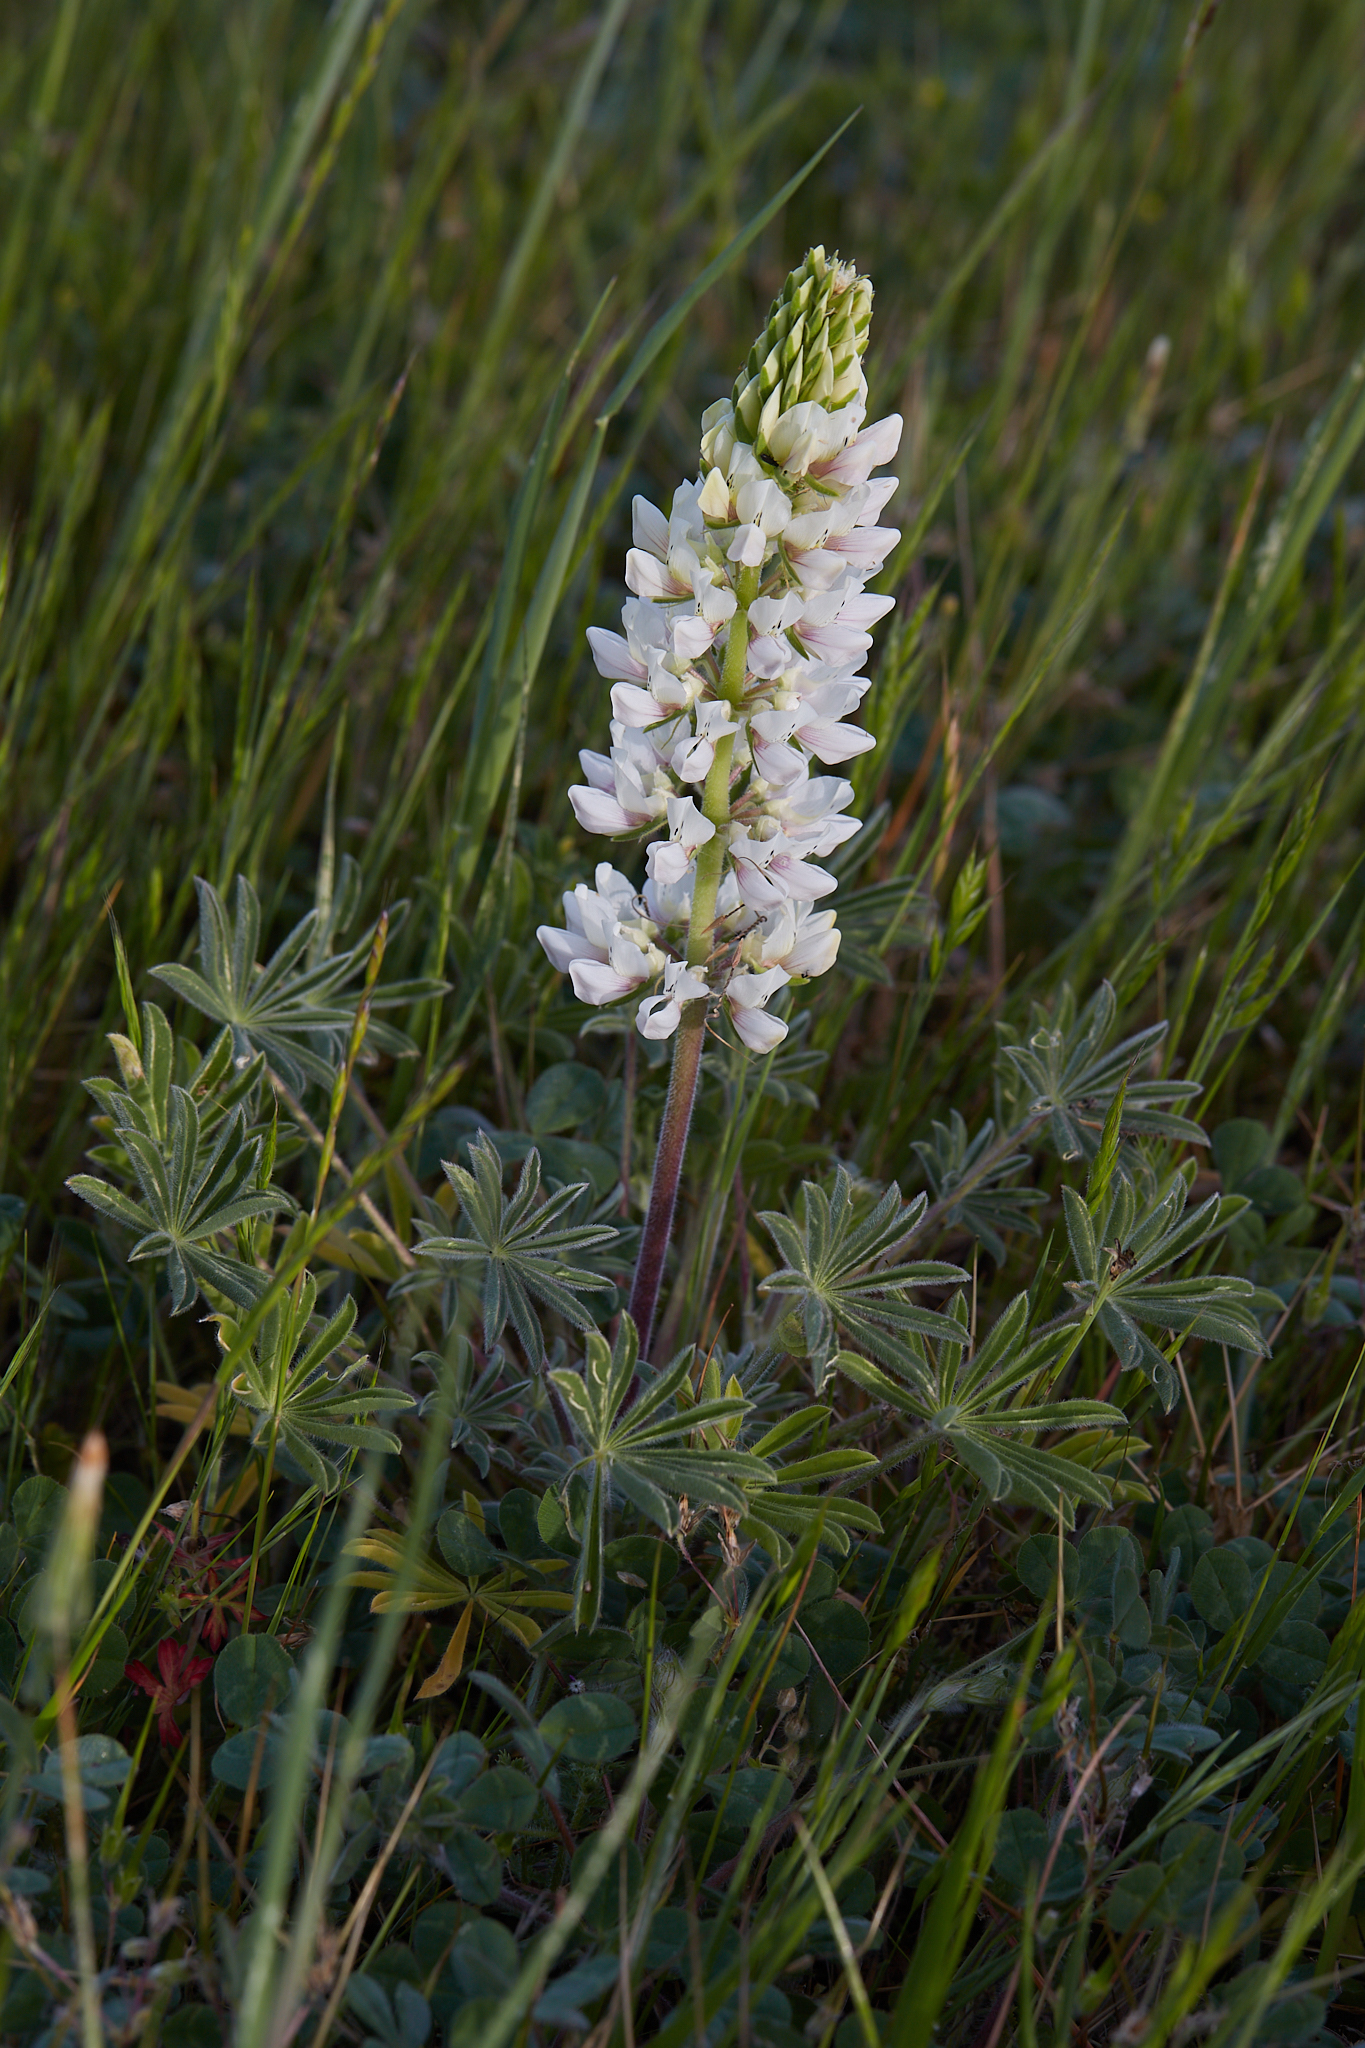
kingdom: Plantae
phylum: Tracheophyta
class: Magnoliopsida
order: Fabales
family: Fabaceae
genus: Lupinus
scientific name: Lupinus microcarpus
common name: Chick lupine
